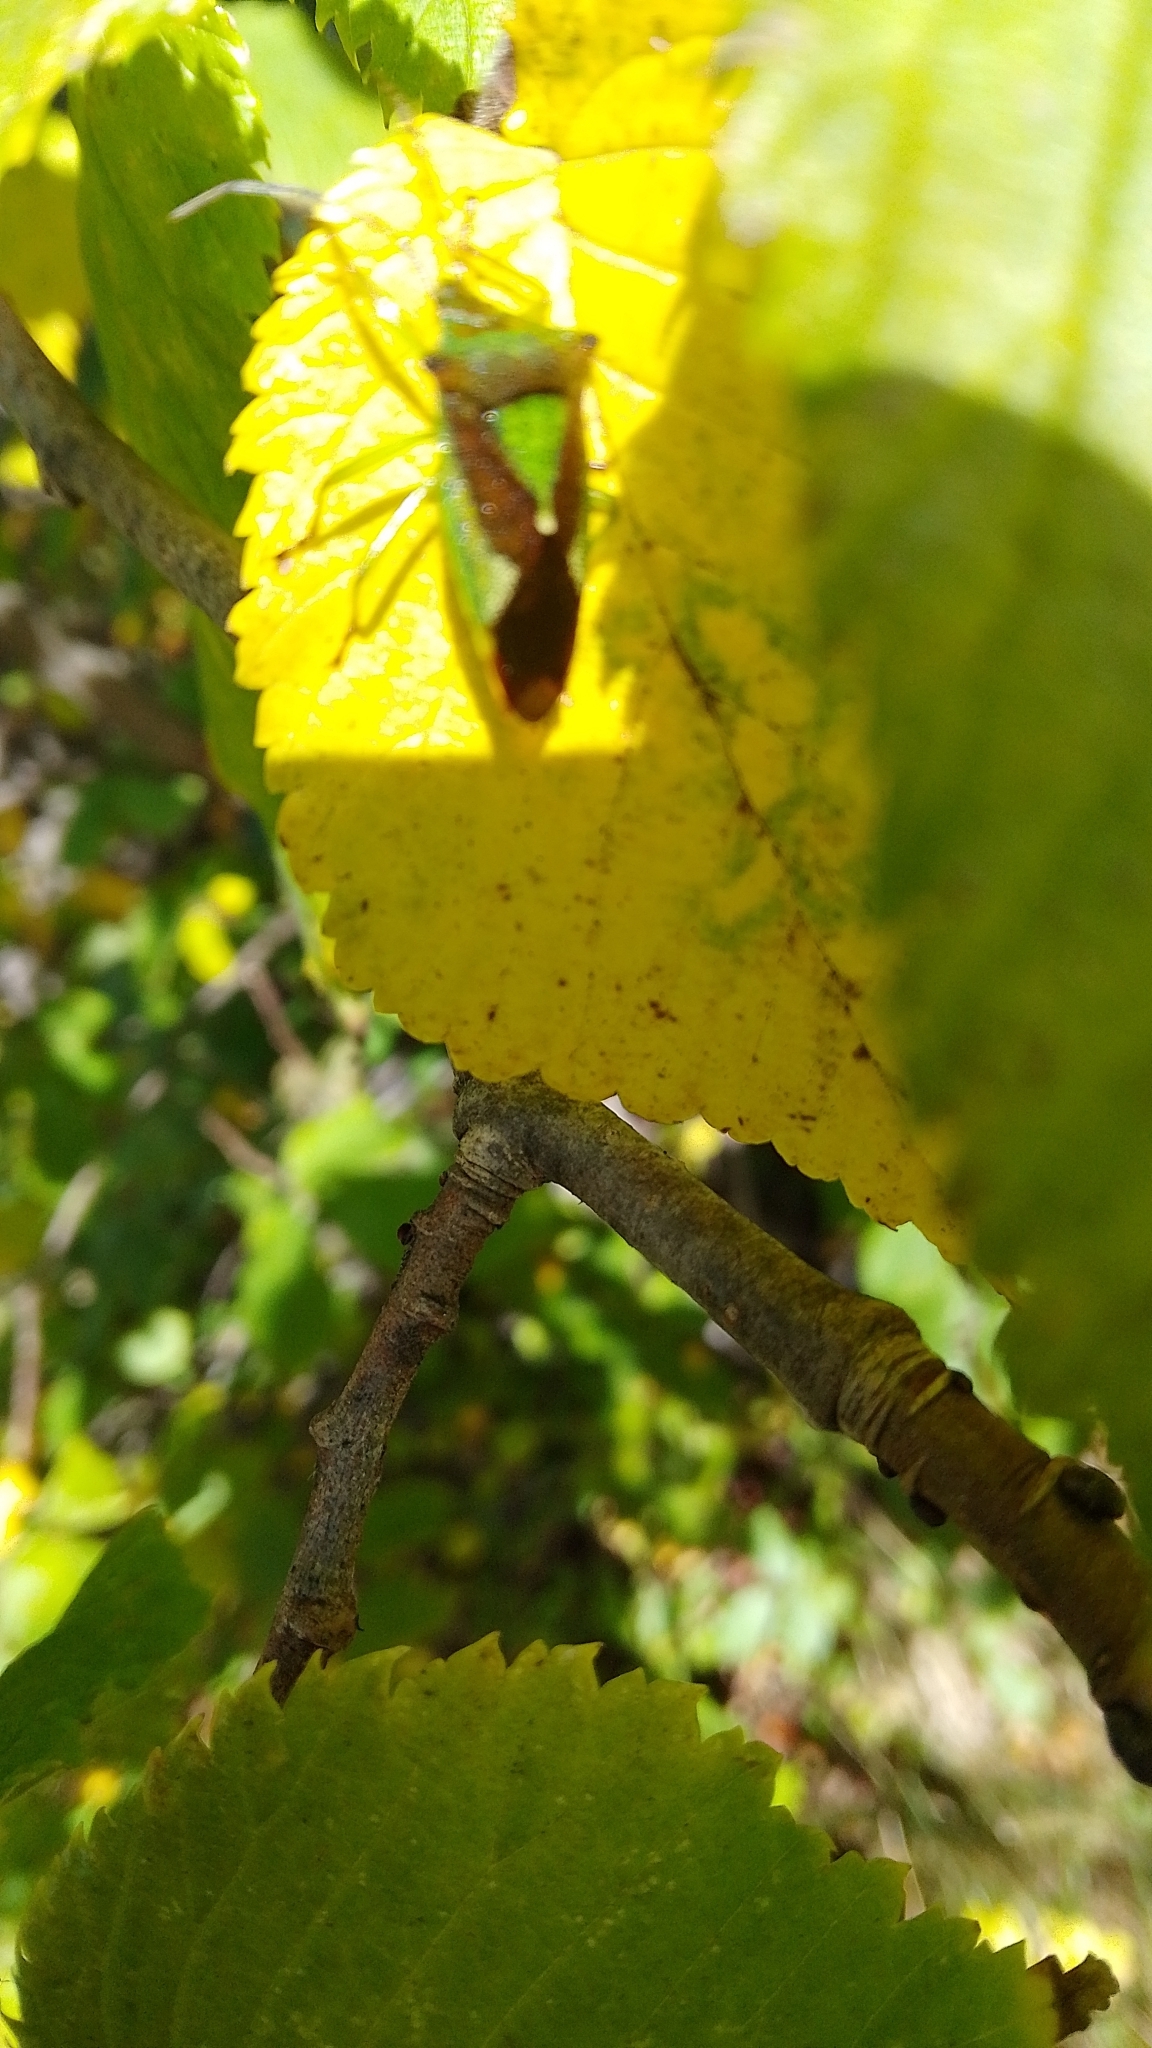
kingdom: Animalia
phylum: Arthropoda
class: Insecta
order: Hemiptera
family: Acanthosomatidae
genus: Acanthosoma
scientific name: Acanthosoma haemorrhoidale
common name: Hawthorn shieldbug
